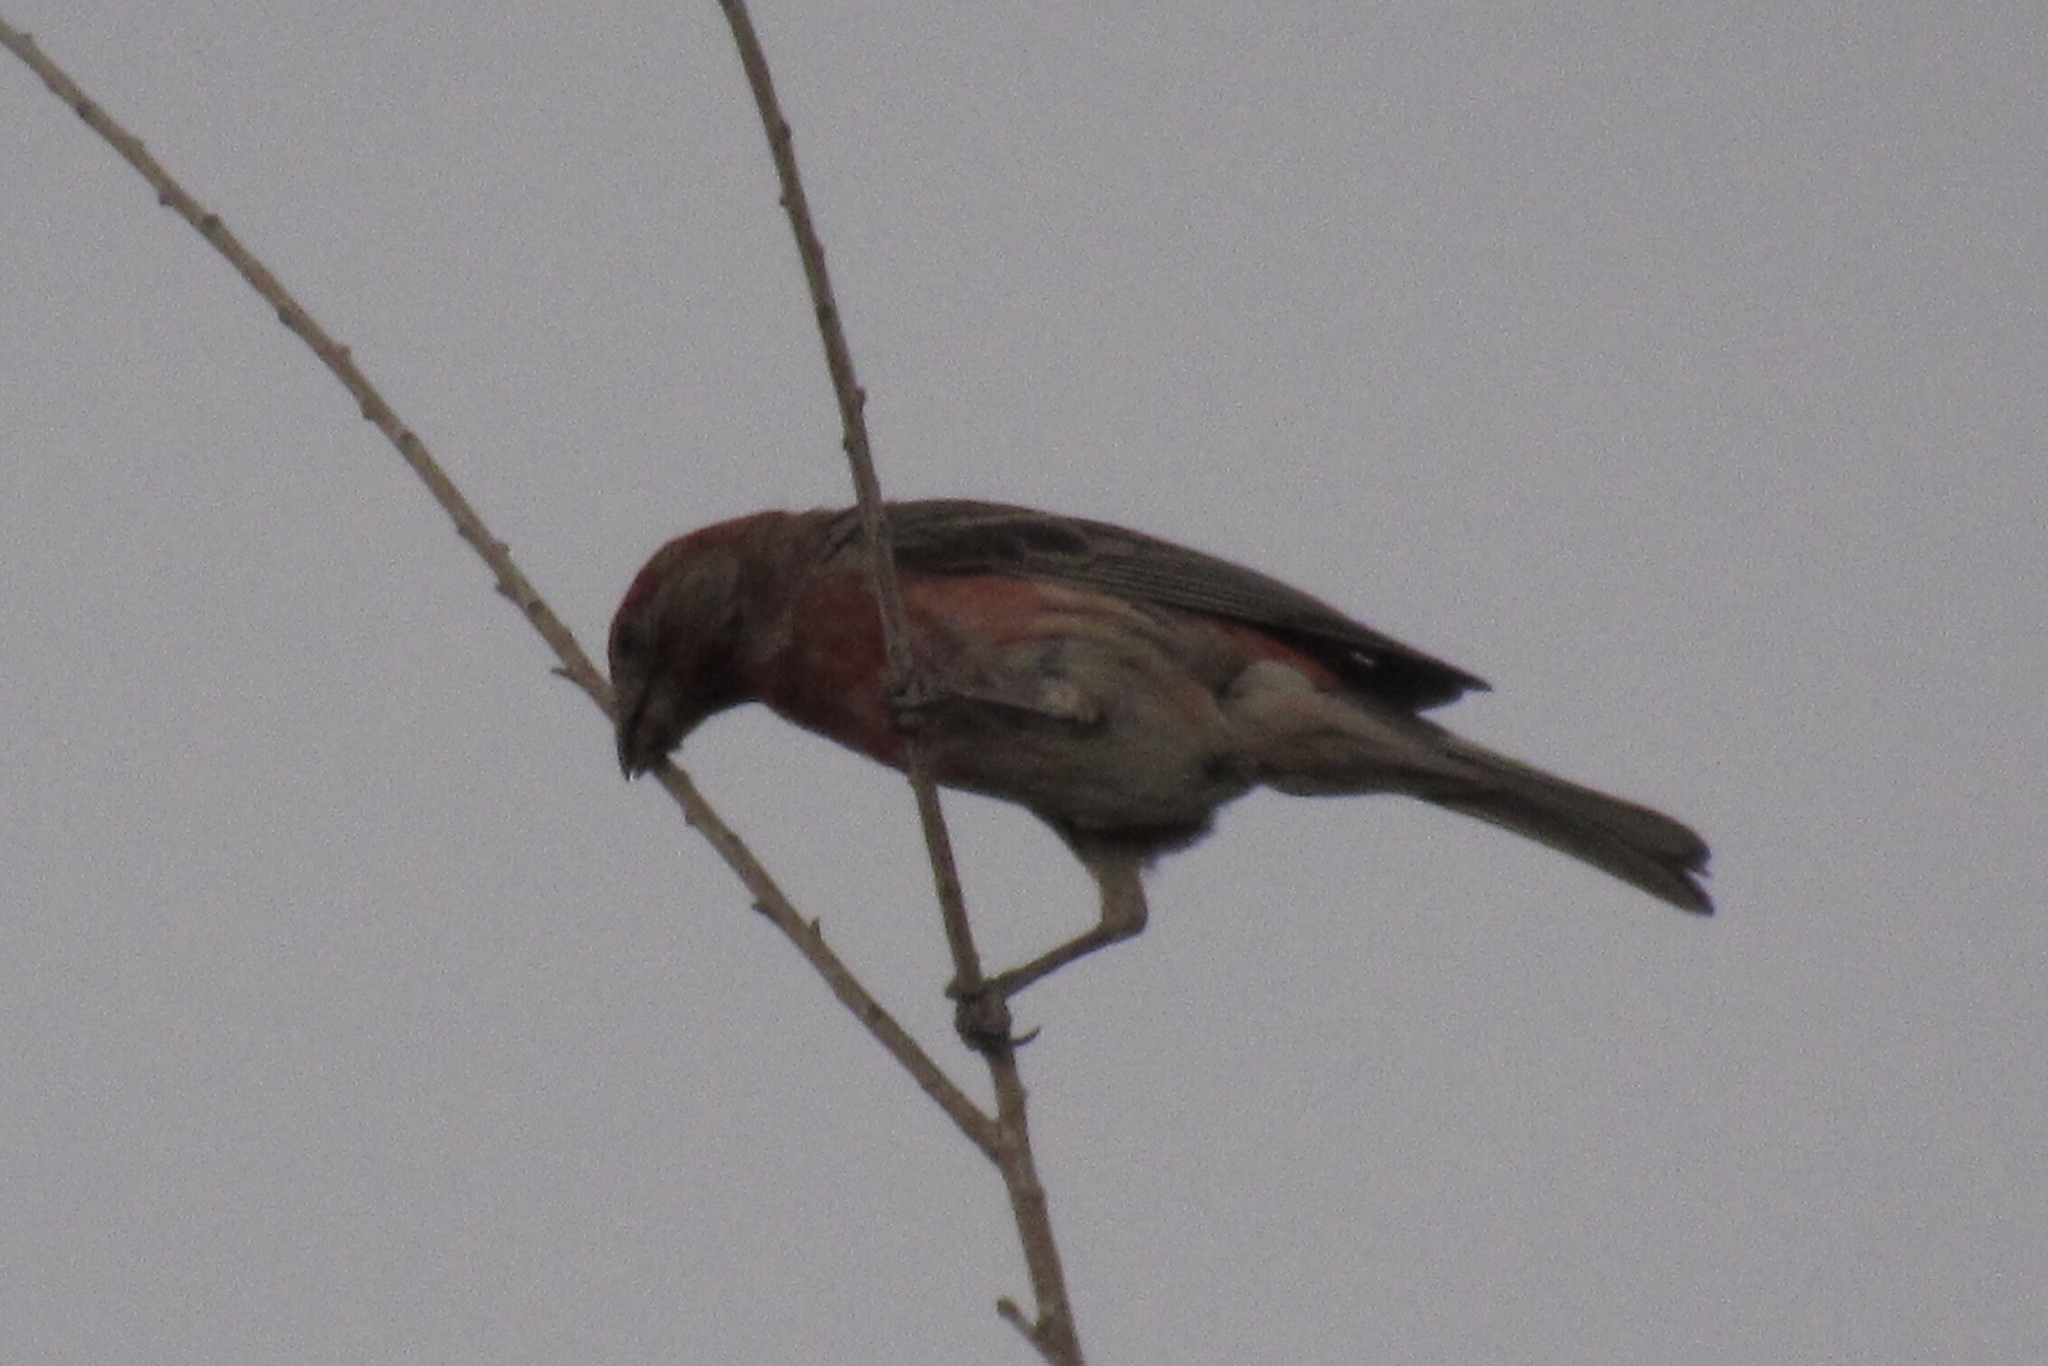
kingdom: Animalia
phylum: Chordata
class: Aves
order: Passeriformes
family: Fringillidae
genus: Haemorhous
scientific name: Haemorhous mexicanus
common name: House finch
